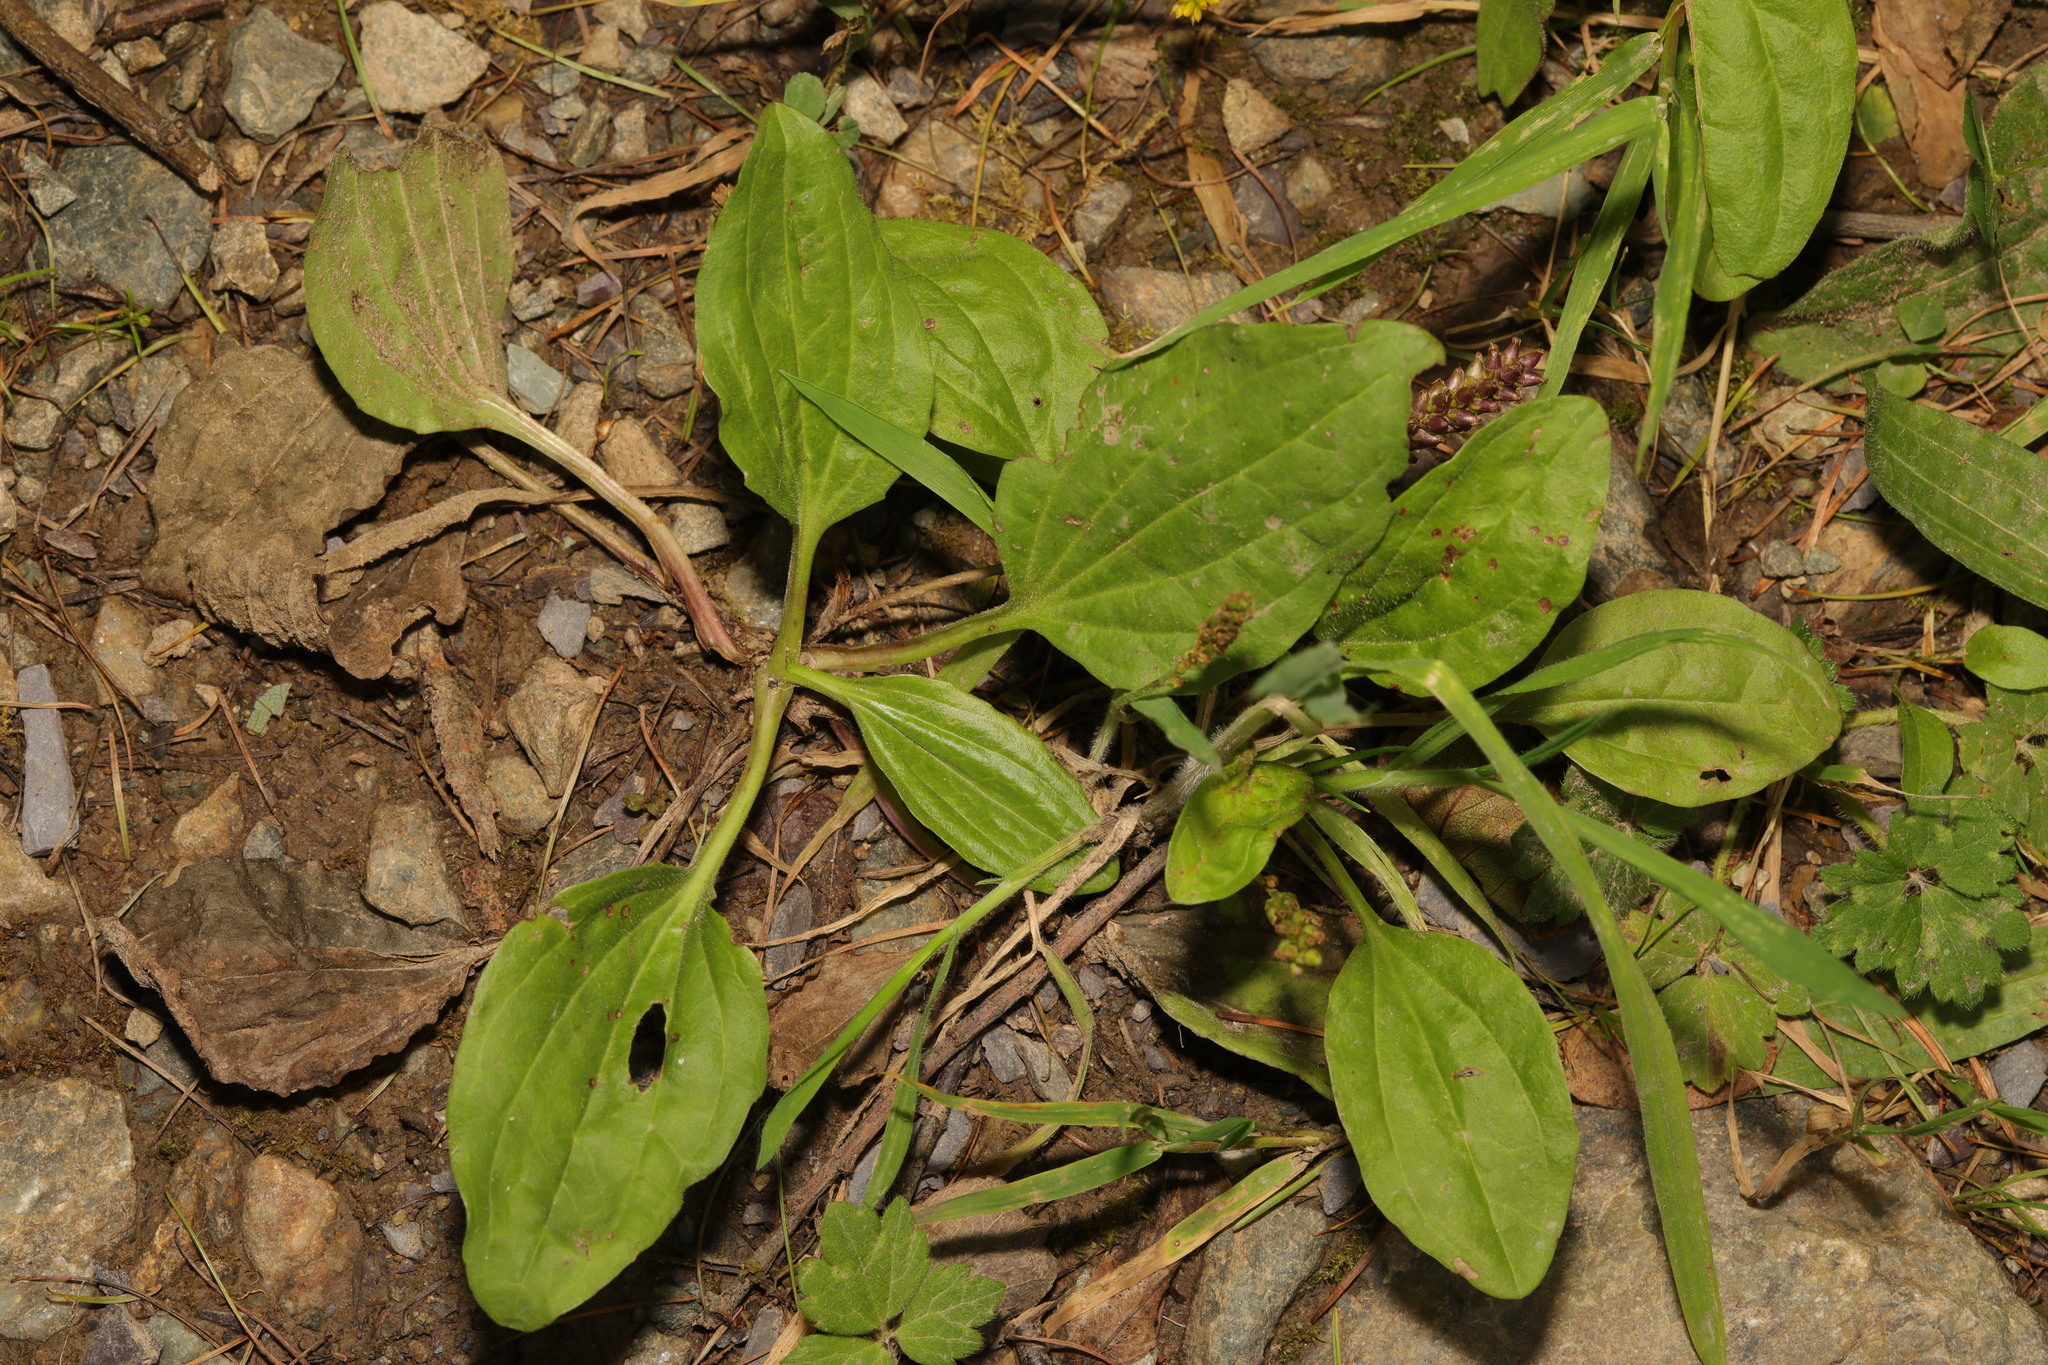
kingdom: Plantae
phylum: Tracheophyta
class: Magnoliopsida
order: Lamiales
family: Plantaginaceae
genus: Plantago
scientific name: Plantago major
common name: Common plantain
